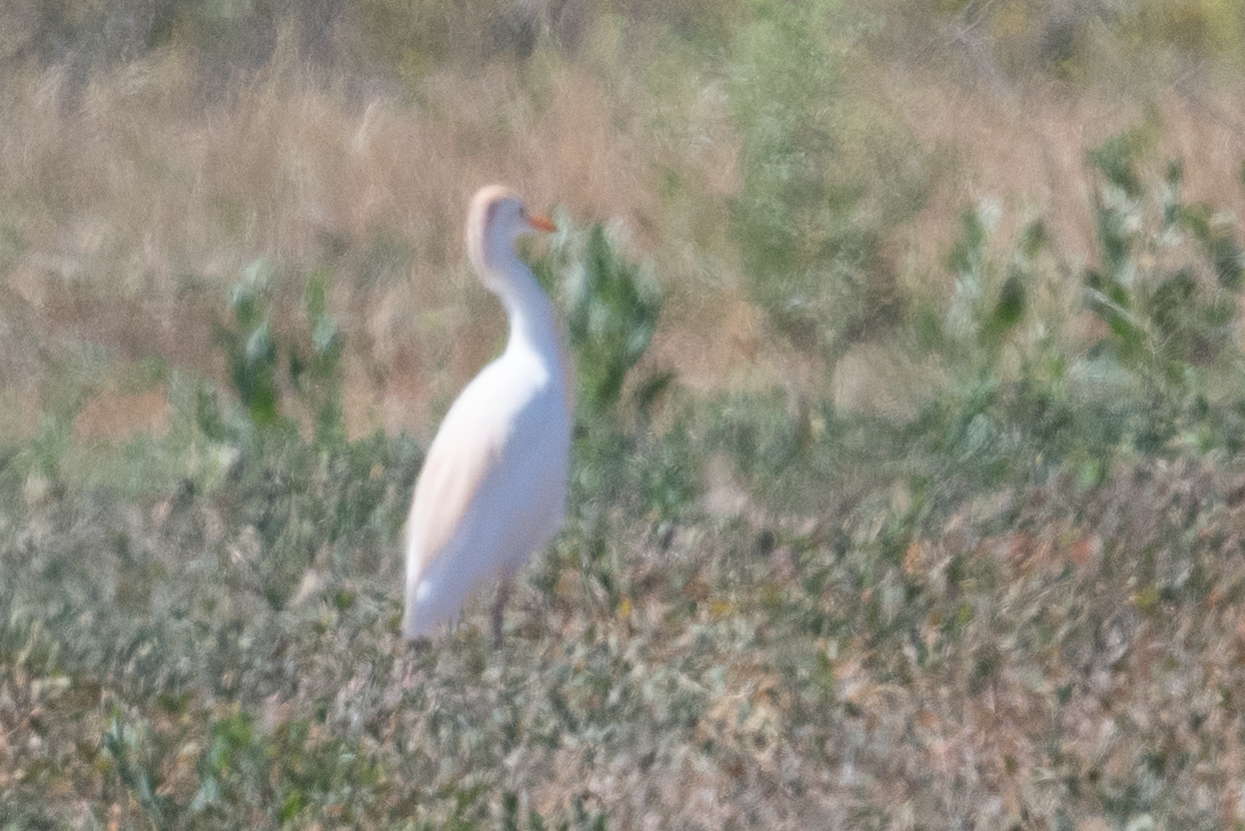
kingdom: Animalia
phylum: Chordata
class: Aves
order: Pelecaniformes
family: Ardeidae
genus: Bubulcus
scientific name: Bubulcus ibis
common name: Cattle egret
